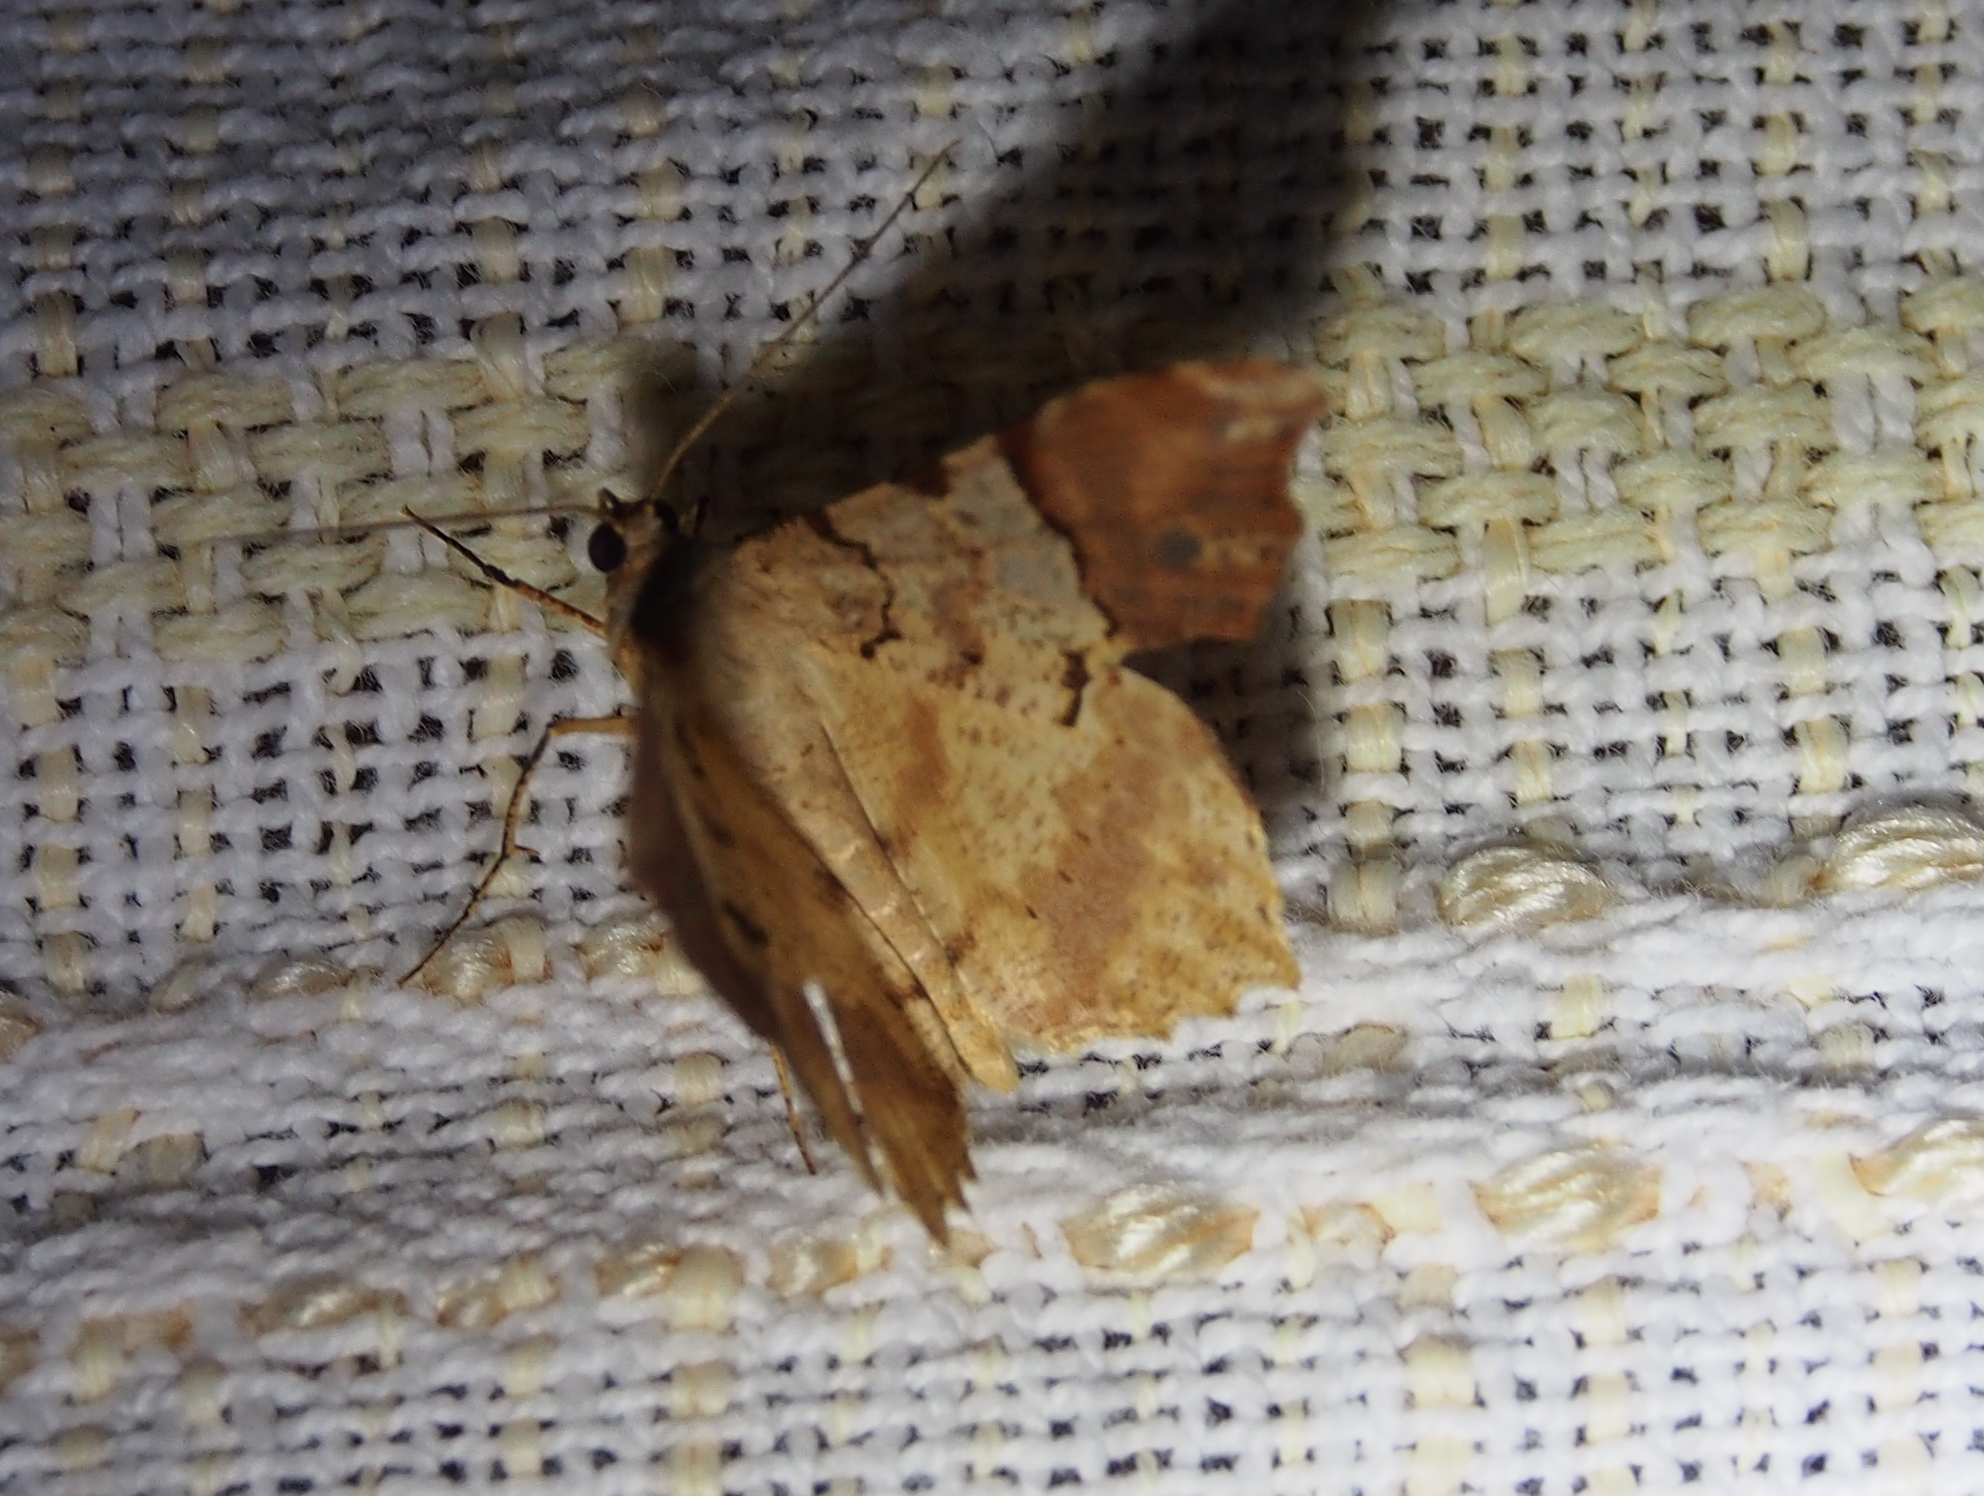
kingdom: Animalia
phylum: Arthropoda
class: Insecta
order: Lepidoptera
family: Geometridae
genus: Macaria
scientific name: Macaria approximaria
